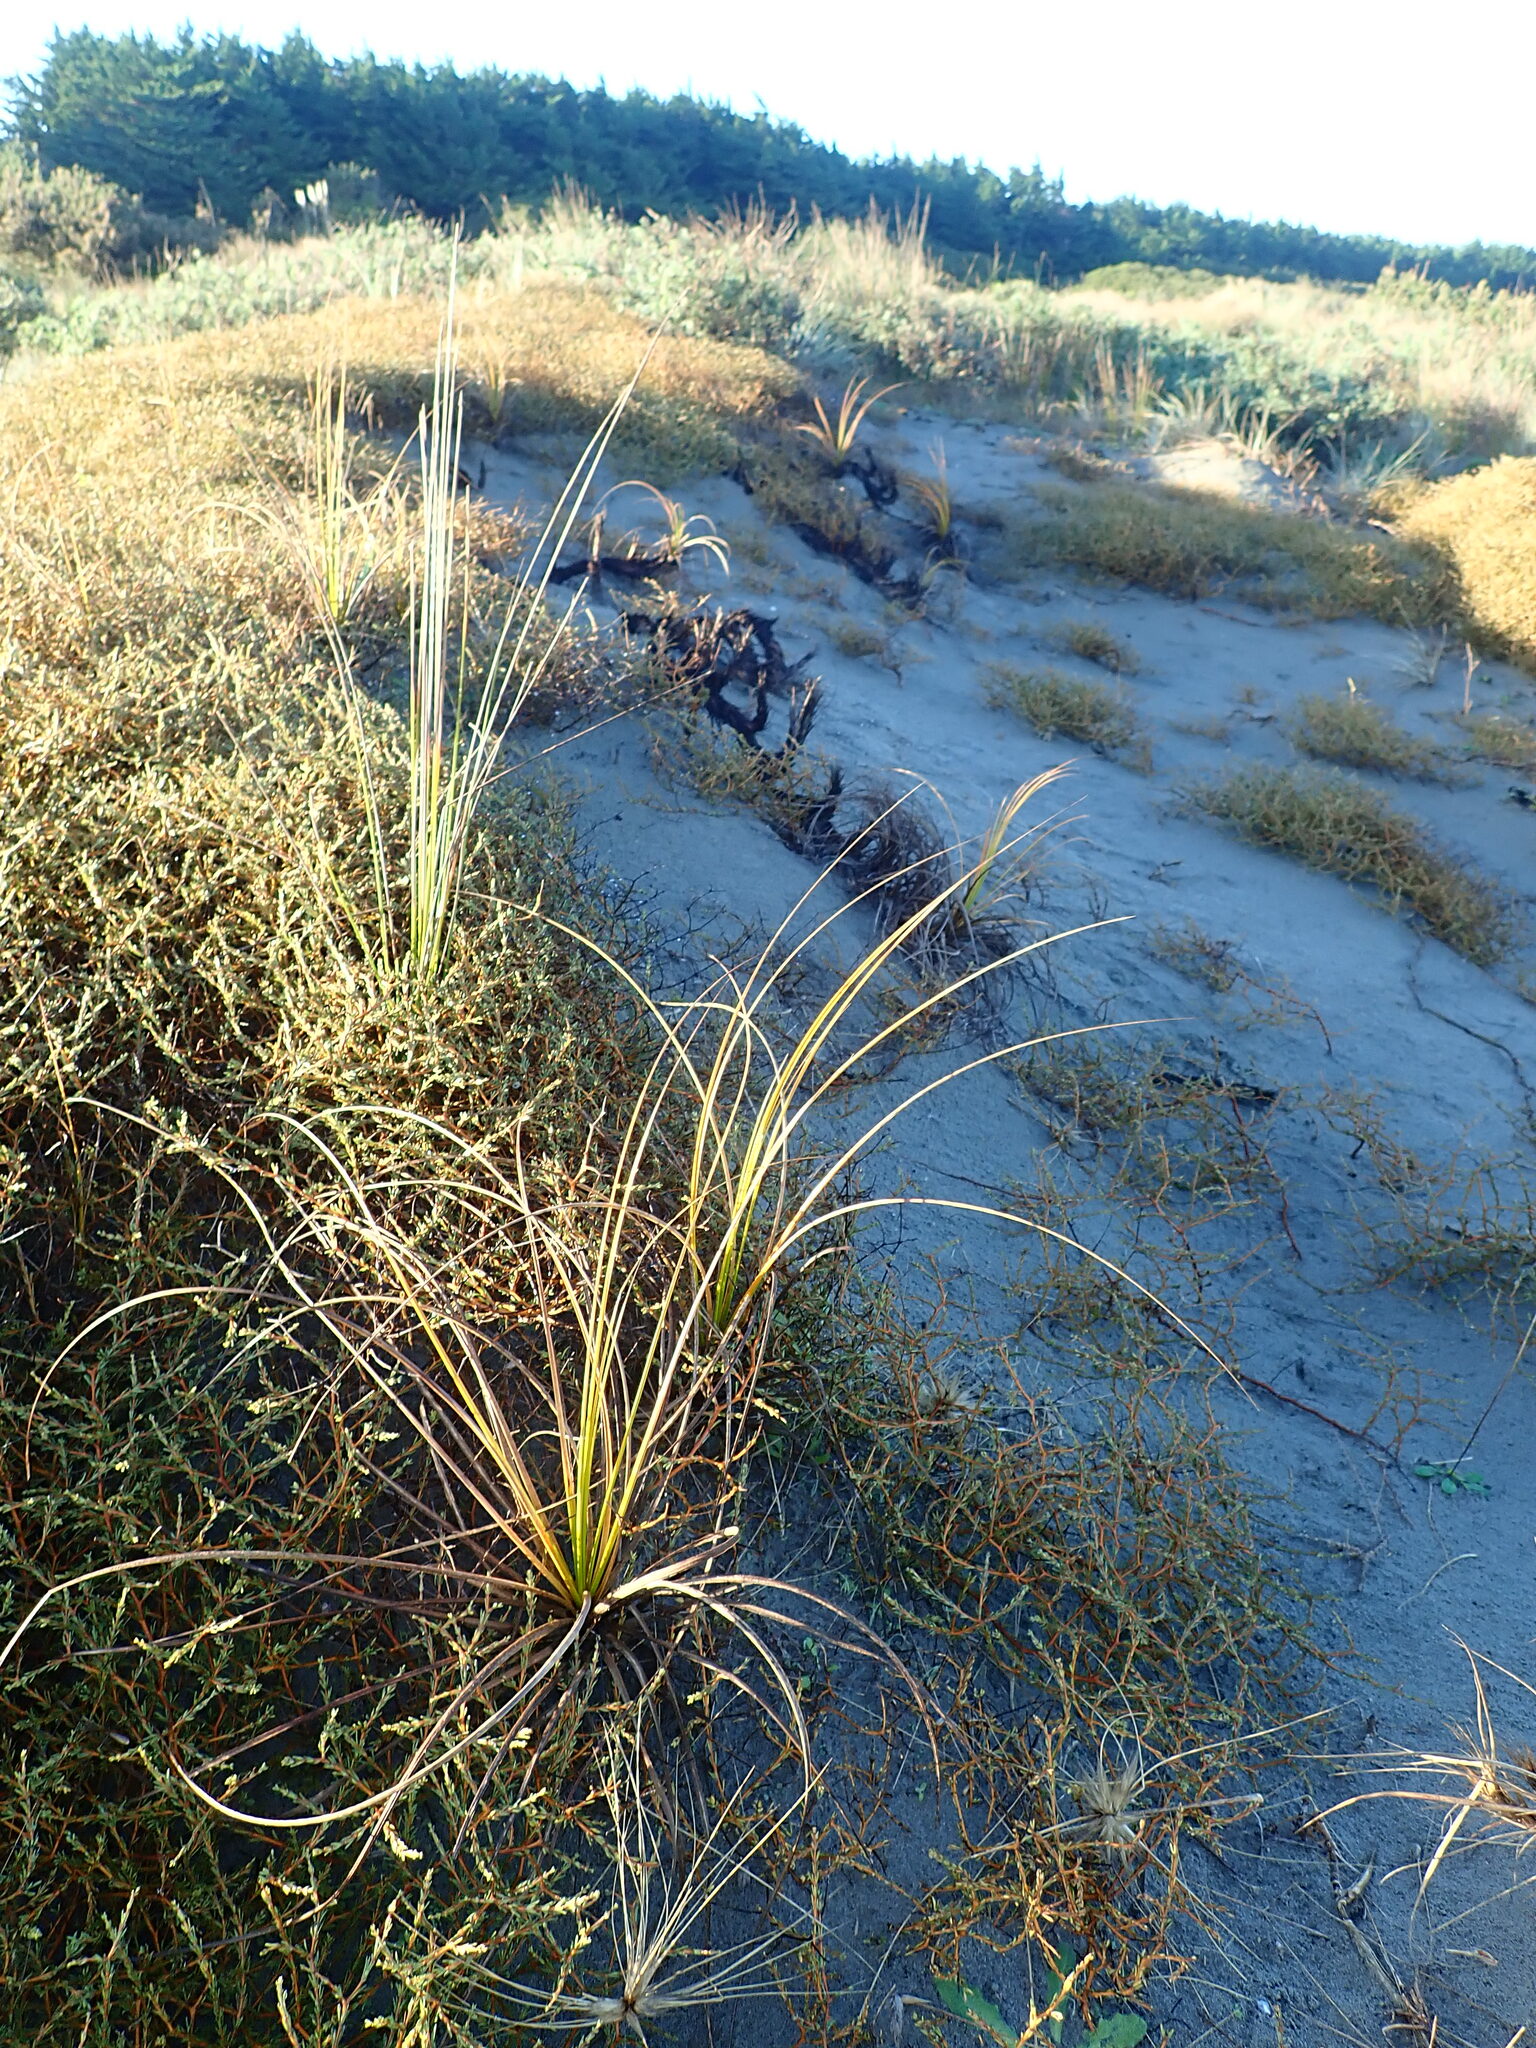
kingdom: Plantae
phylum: Tracheophyta
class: Liliopsida
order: Poales
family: Cyperaceae
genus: Ficinia
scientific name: Ficinia spiralis
